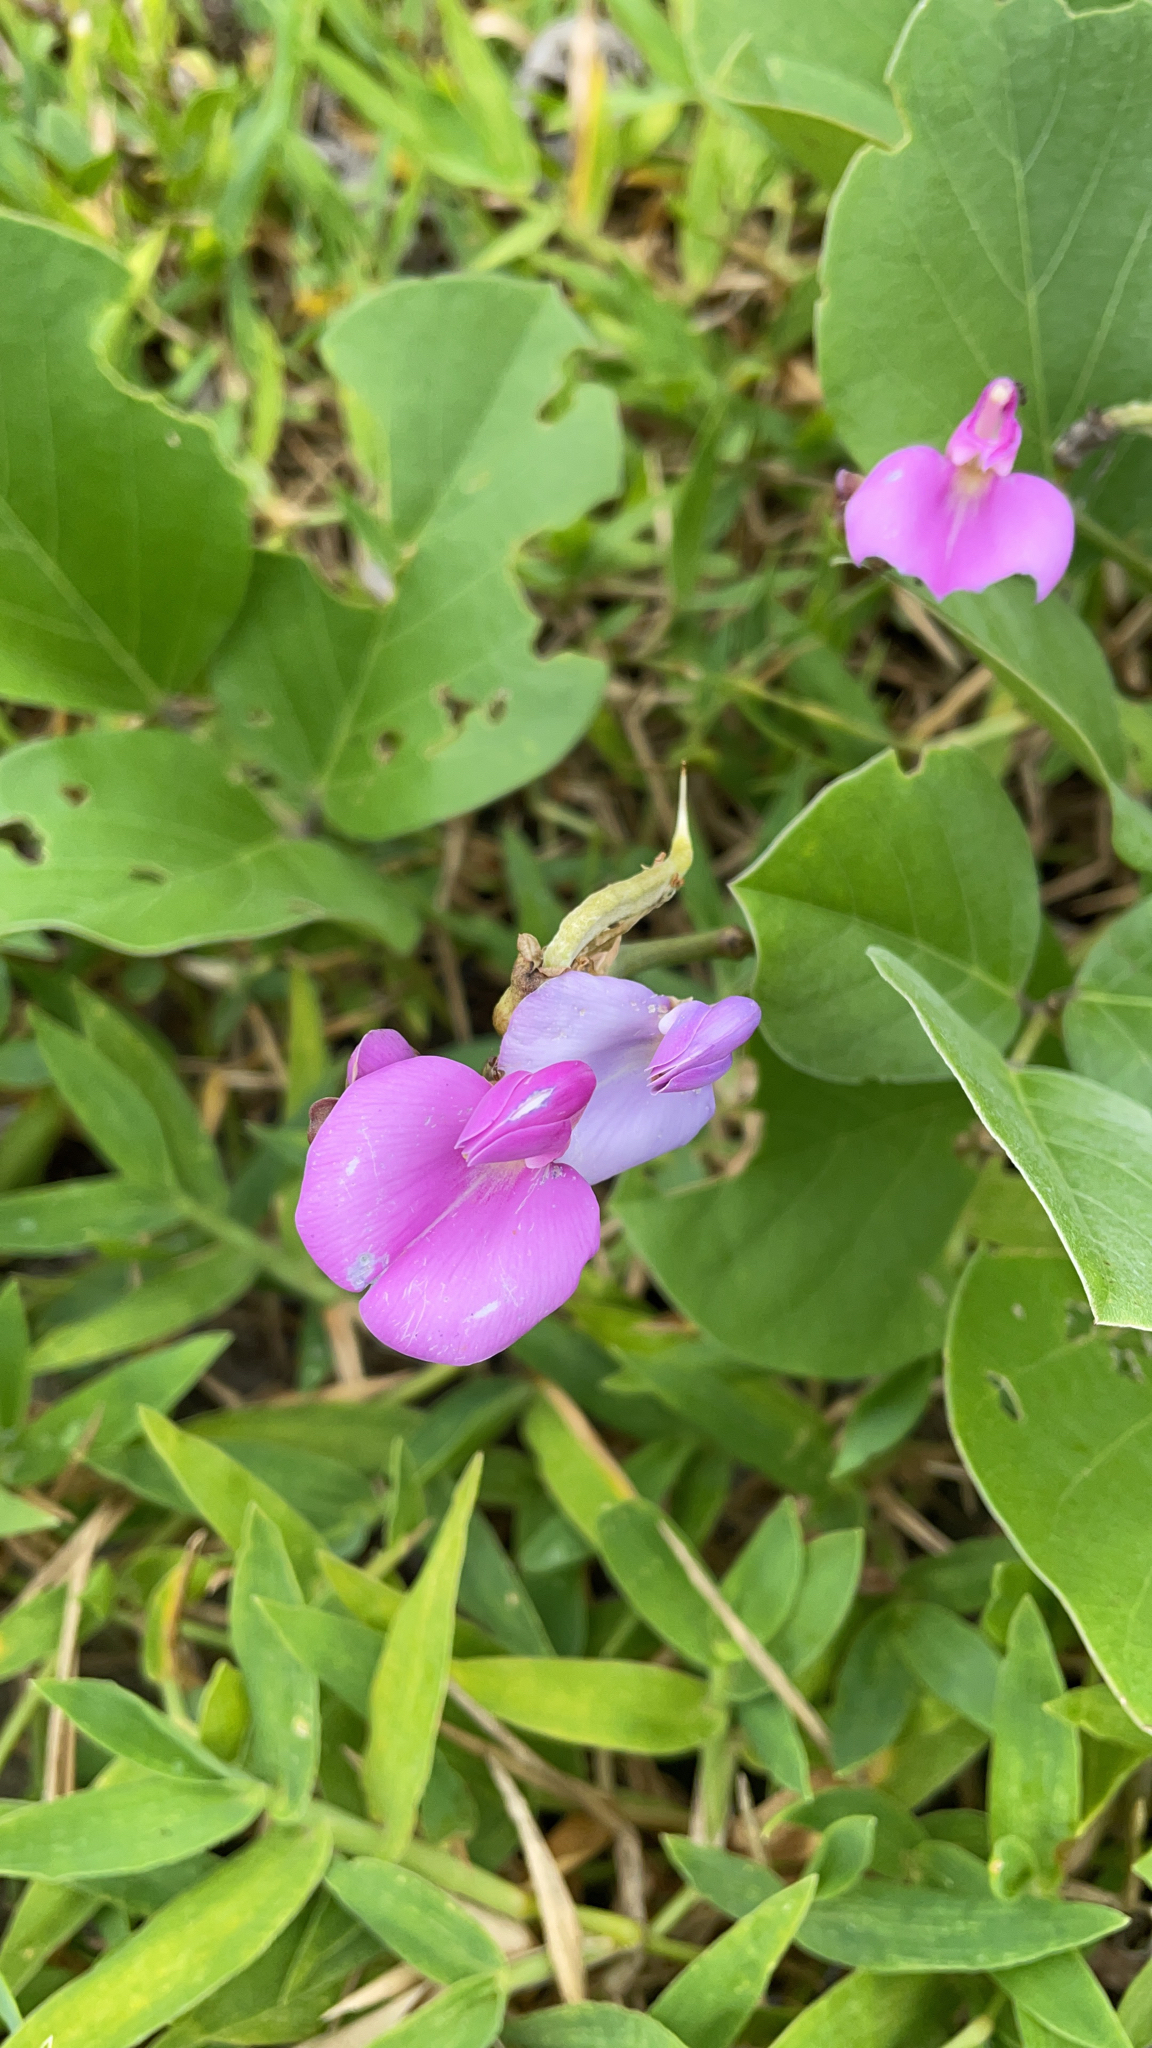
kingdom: Plantae
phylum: Tracheophyta
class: Magnoliopsida
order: Fabales
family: Fabaceae
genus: Canavalia
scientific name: Canavalia rosea
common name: Beach-bean
